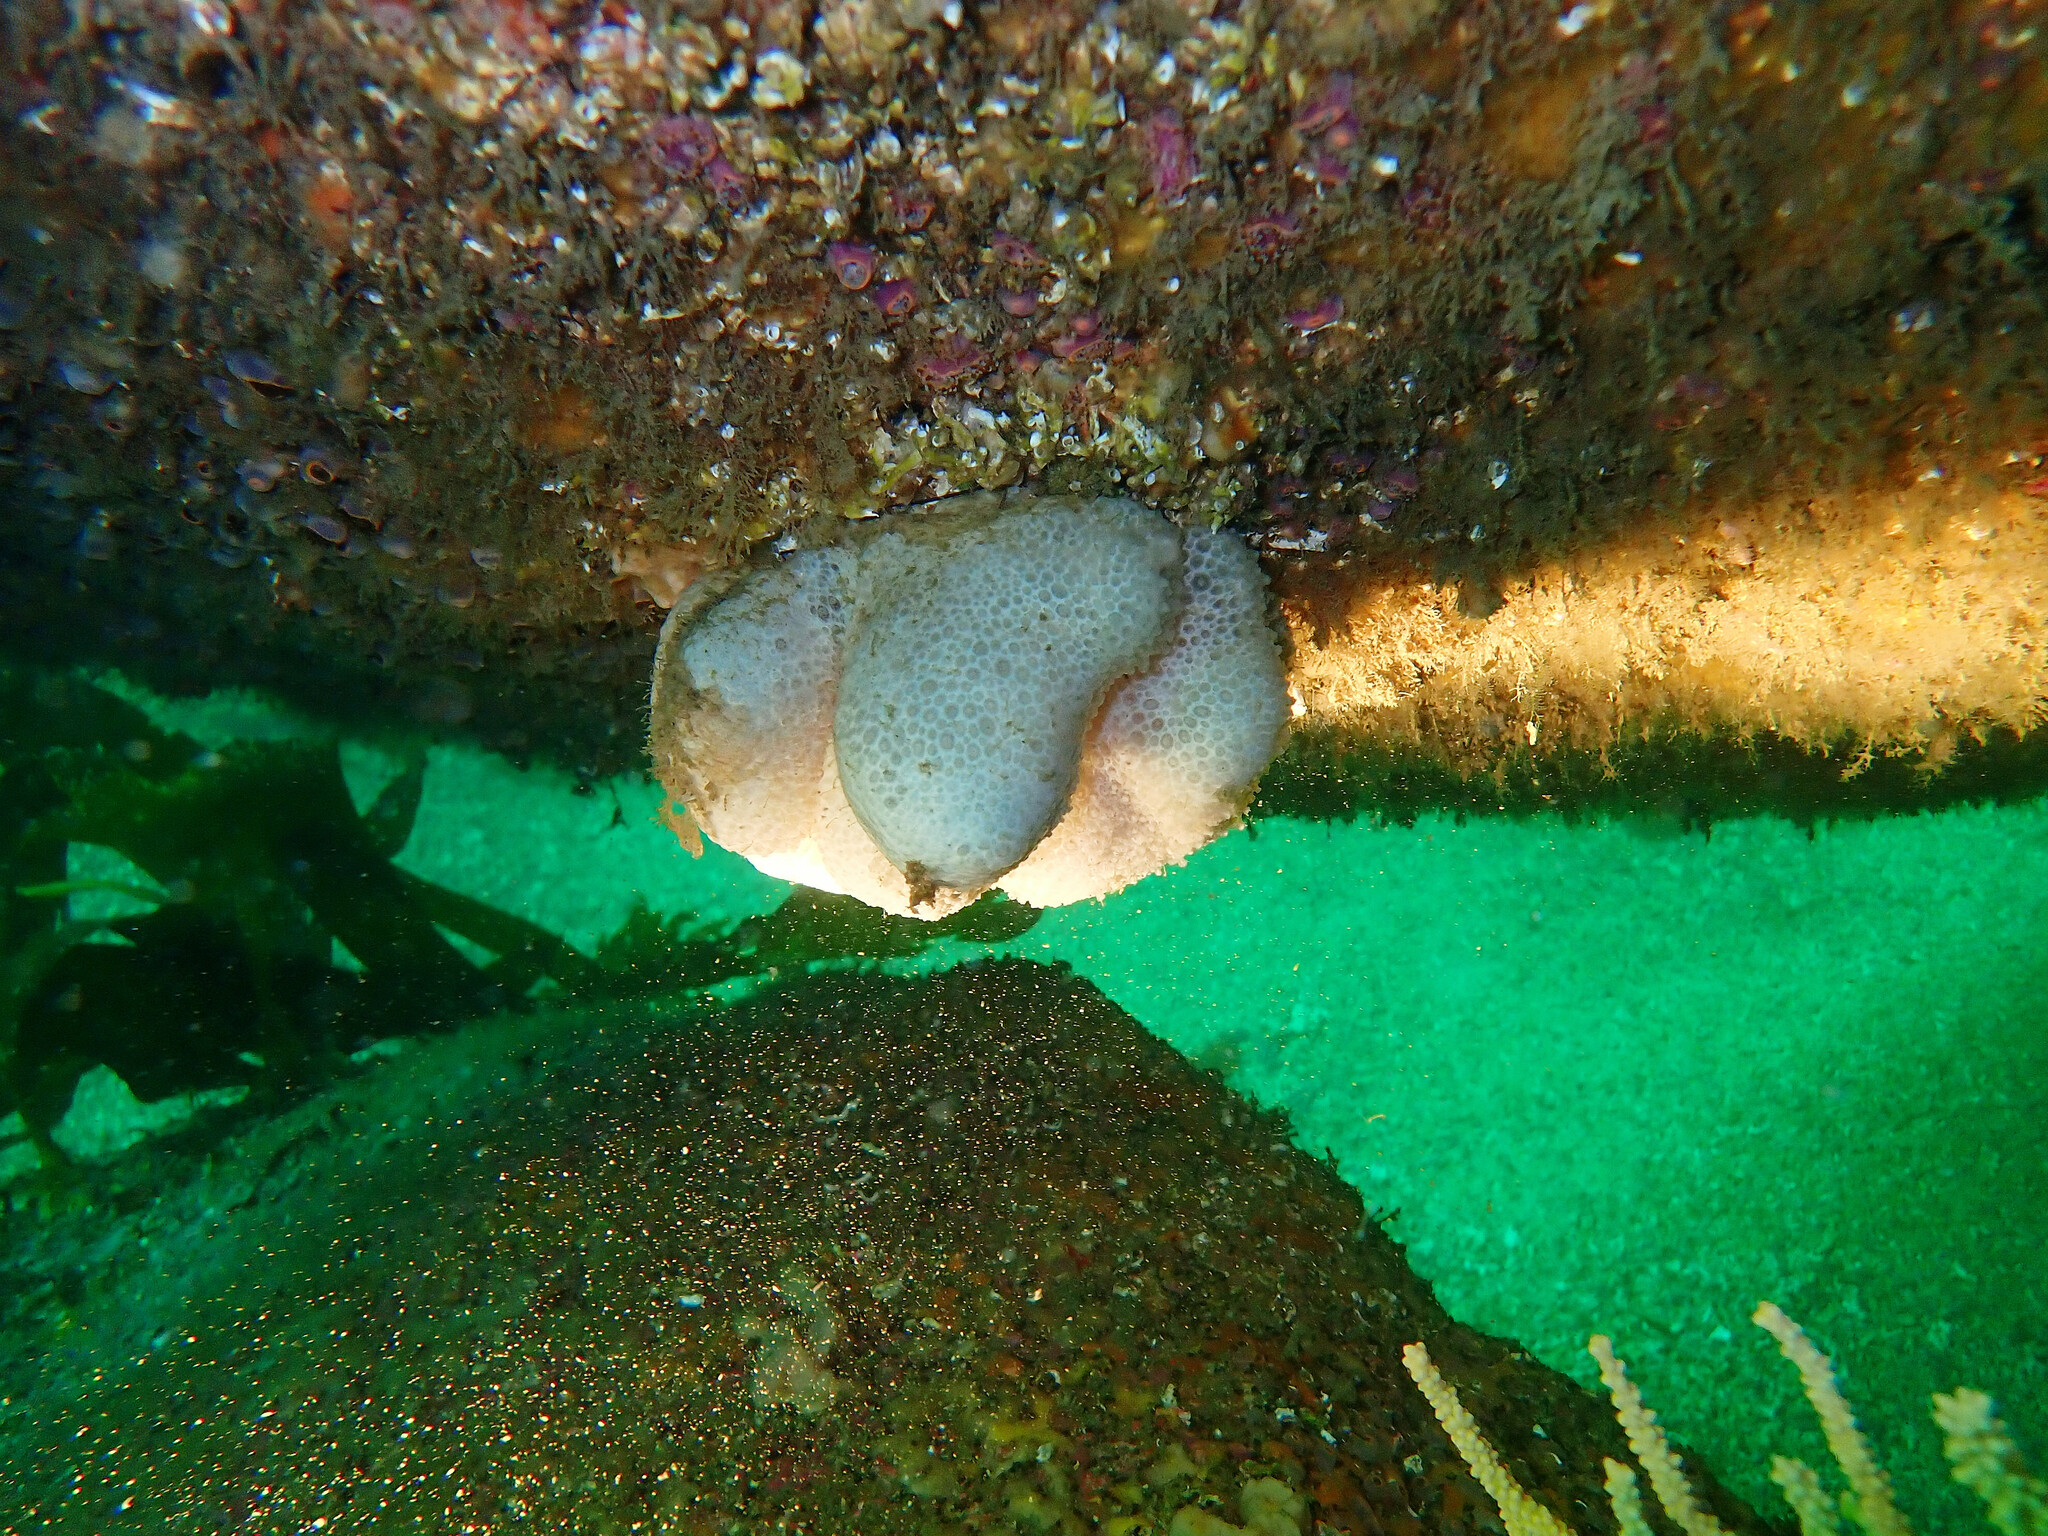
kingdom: Animalia
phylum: Cnidaria
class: Anthozoa
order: Malacalcyonacea
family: Alcyoniidae
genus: Alcyonium
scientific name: Alcyonium digitatum
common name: Dead man's fingers
